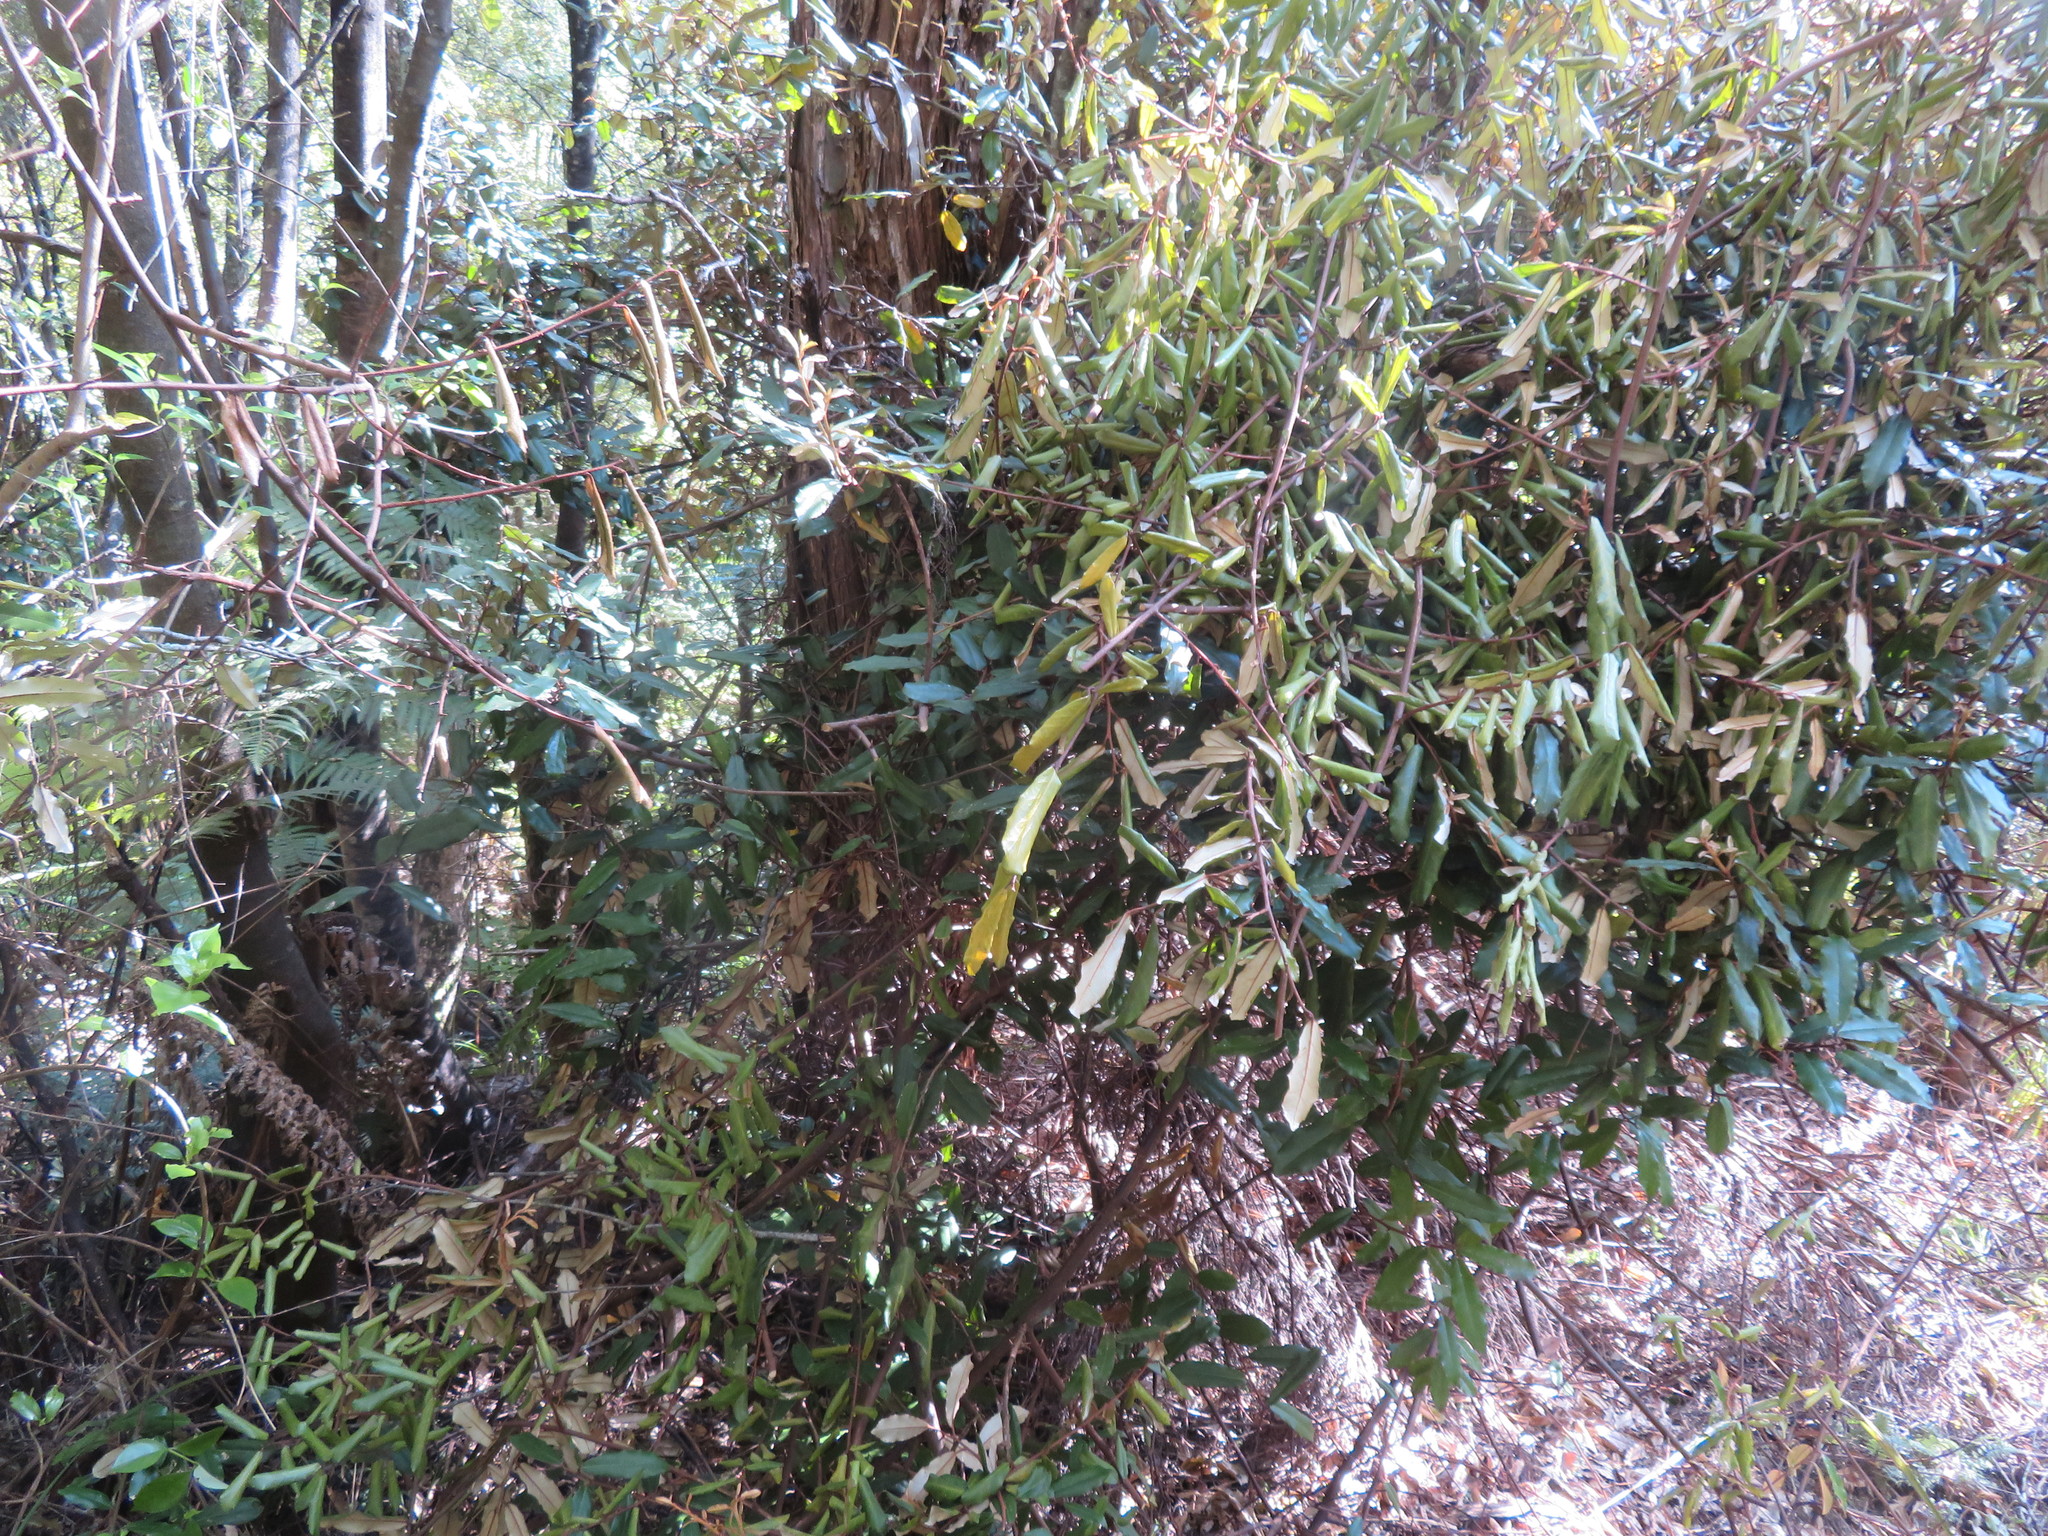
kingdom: Plantae
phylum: Tracheophyta
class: Magnoliopsida
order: Rosales
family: Elaeagnaceae
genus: Elaeagnus
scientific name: Elaeagnus reflexa
